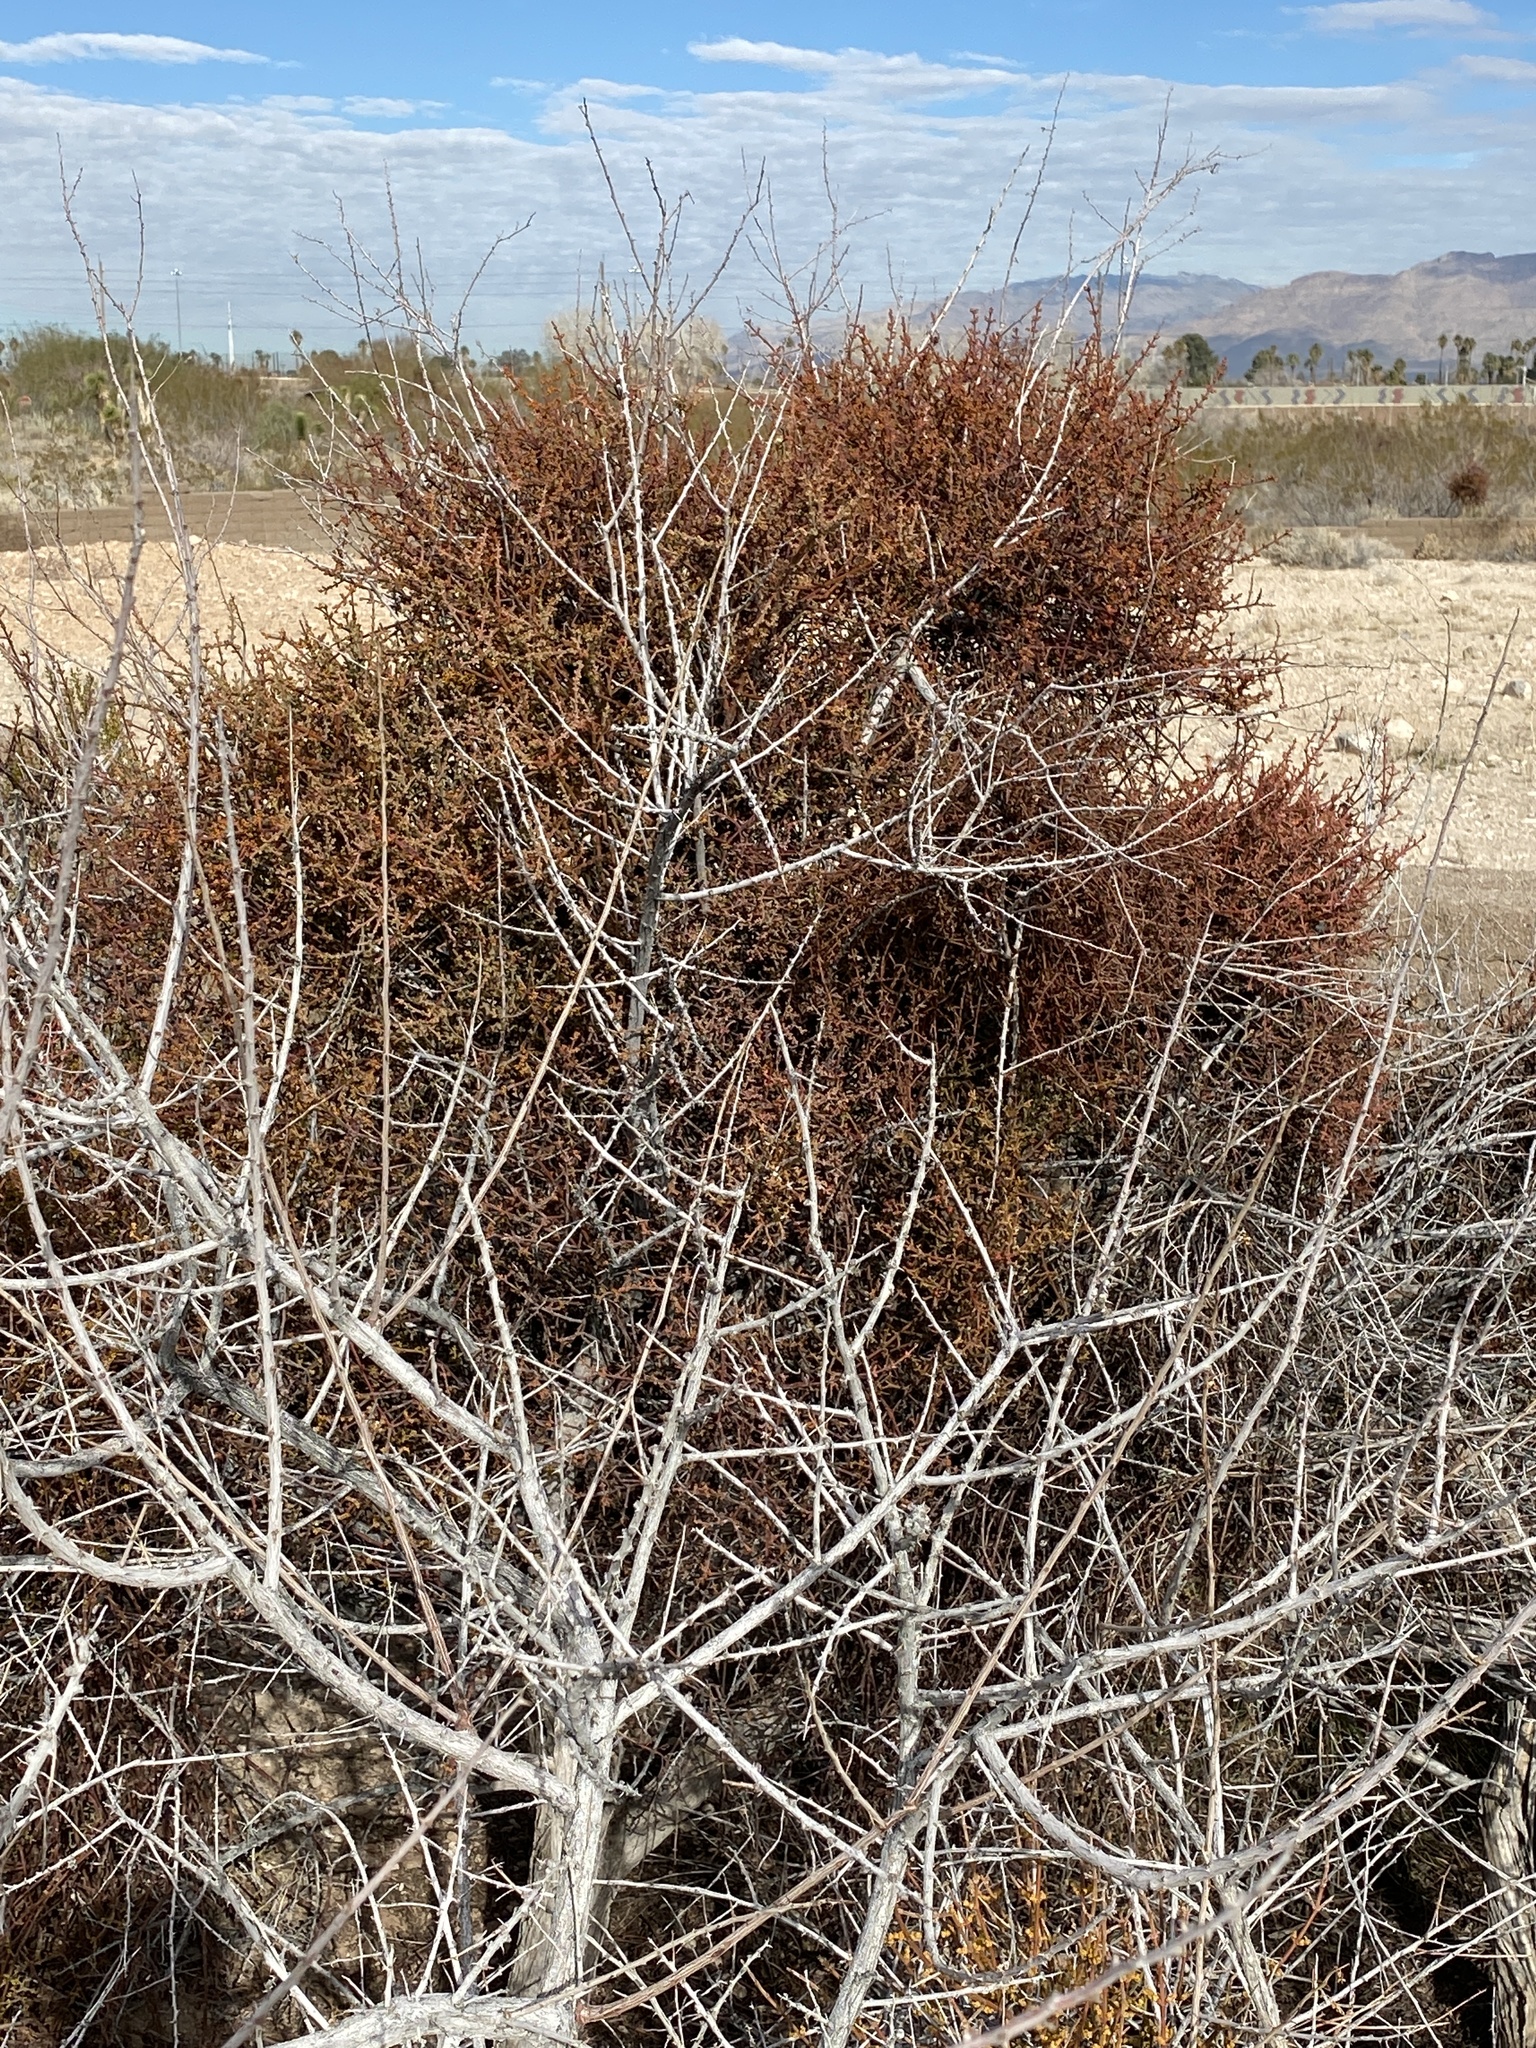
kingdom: Plantae
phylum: Tracheophyta
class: Magnoliopsida
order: Santalales
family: Viscaceae
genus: Phoradendron
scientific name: Phoradendron californicum
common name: Acacia mistletoe
